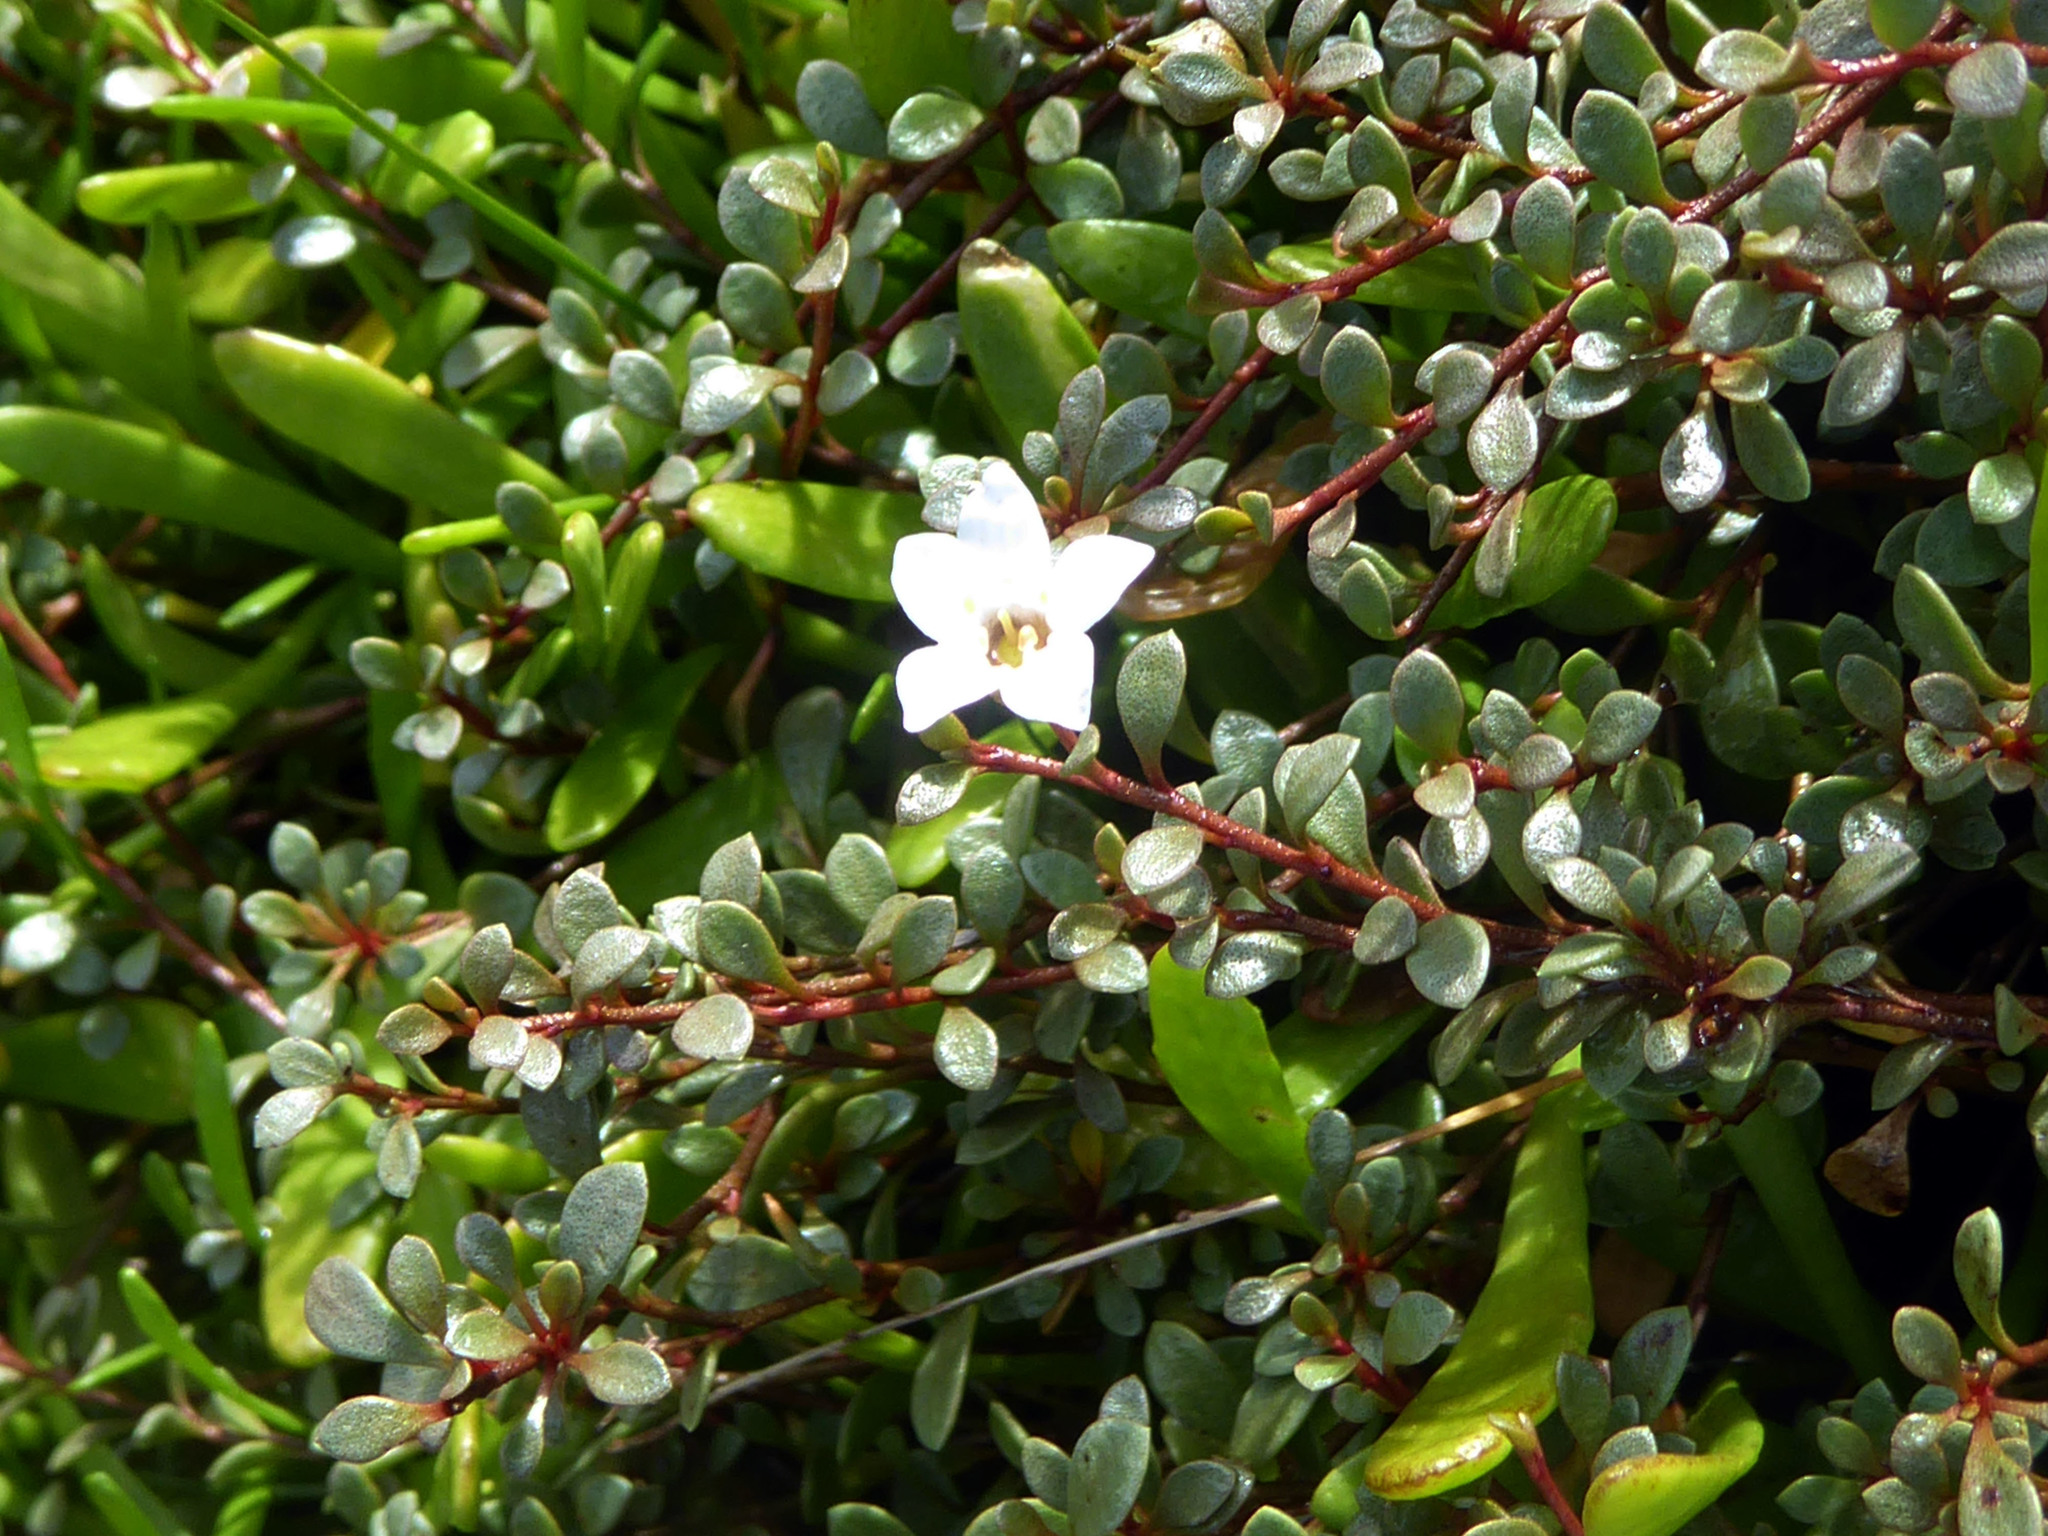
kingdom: Plantae
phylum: Tracheophyta
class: Magnoliopsida
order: Ericales
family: Primulaceae
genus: Samolus
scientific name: Samolus repens
